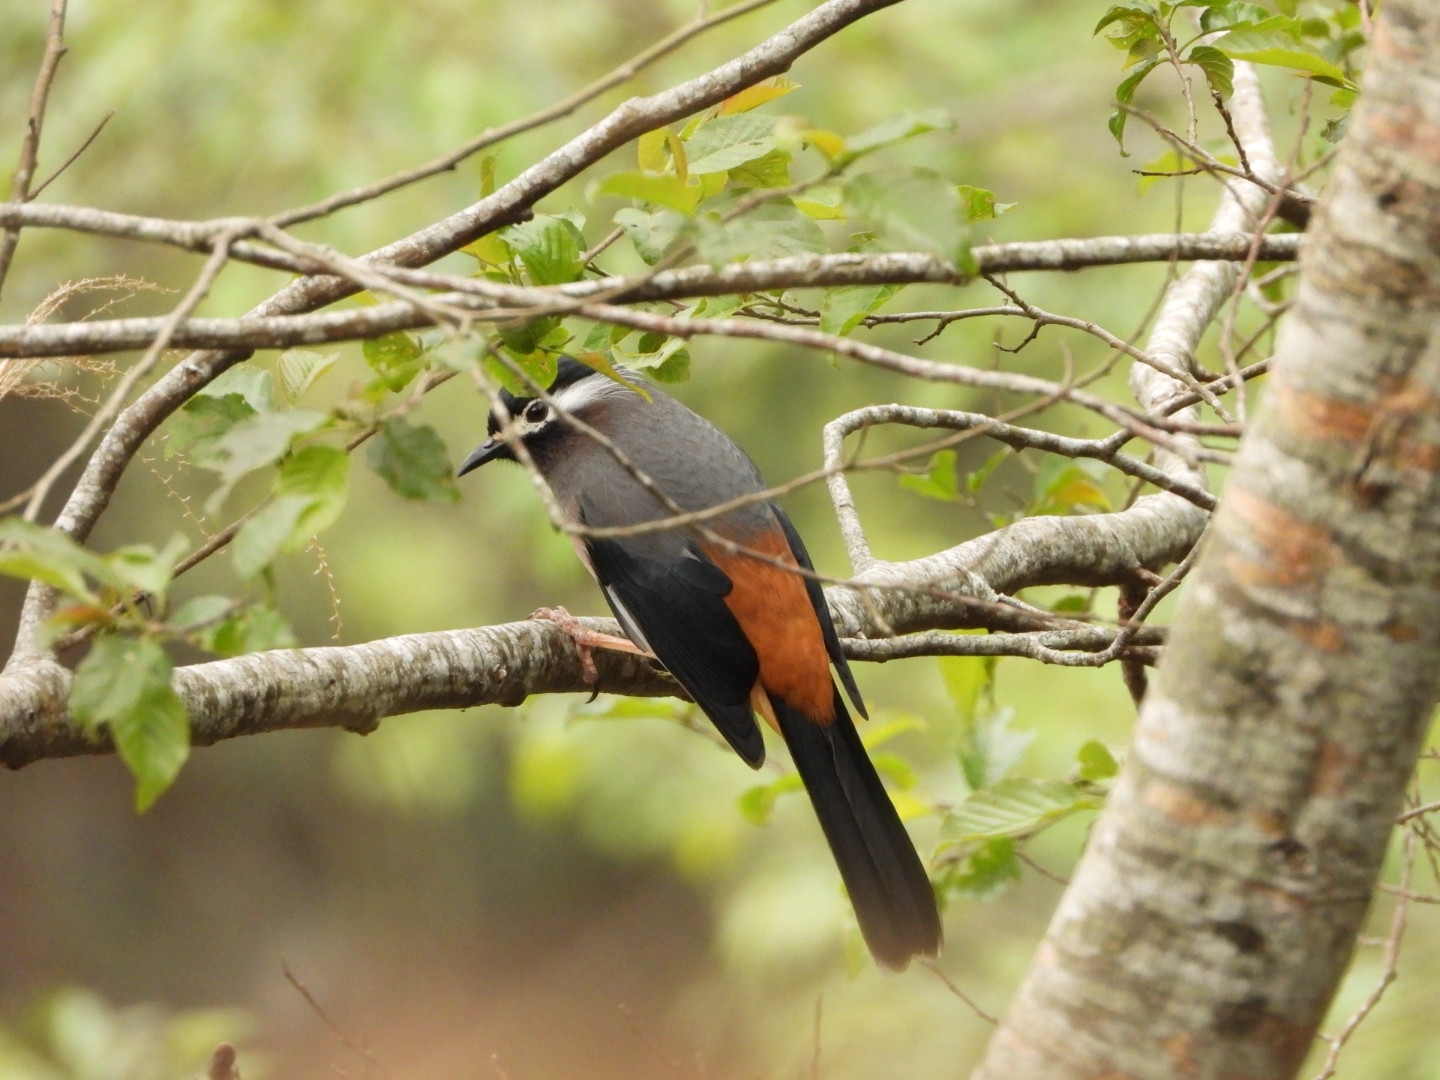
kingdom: Animalia
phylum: Chordata
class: Aves
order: Passeriformes
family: Leiothrichidae
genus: Heterophasia
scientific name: Heterophasia auricularis
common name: White-eared sibia
